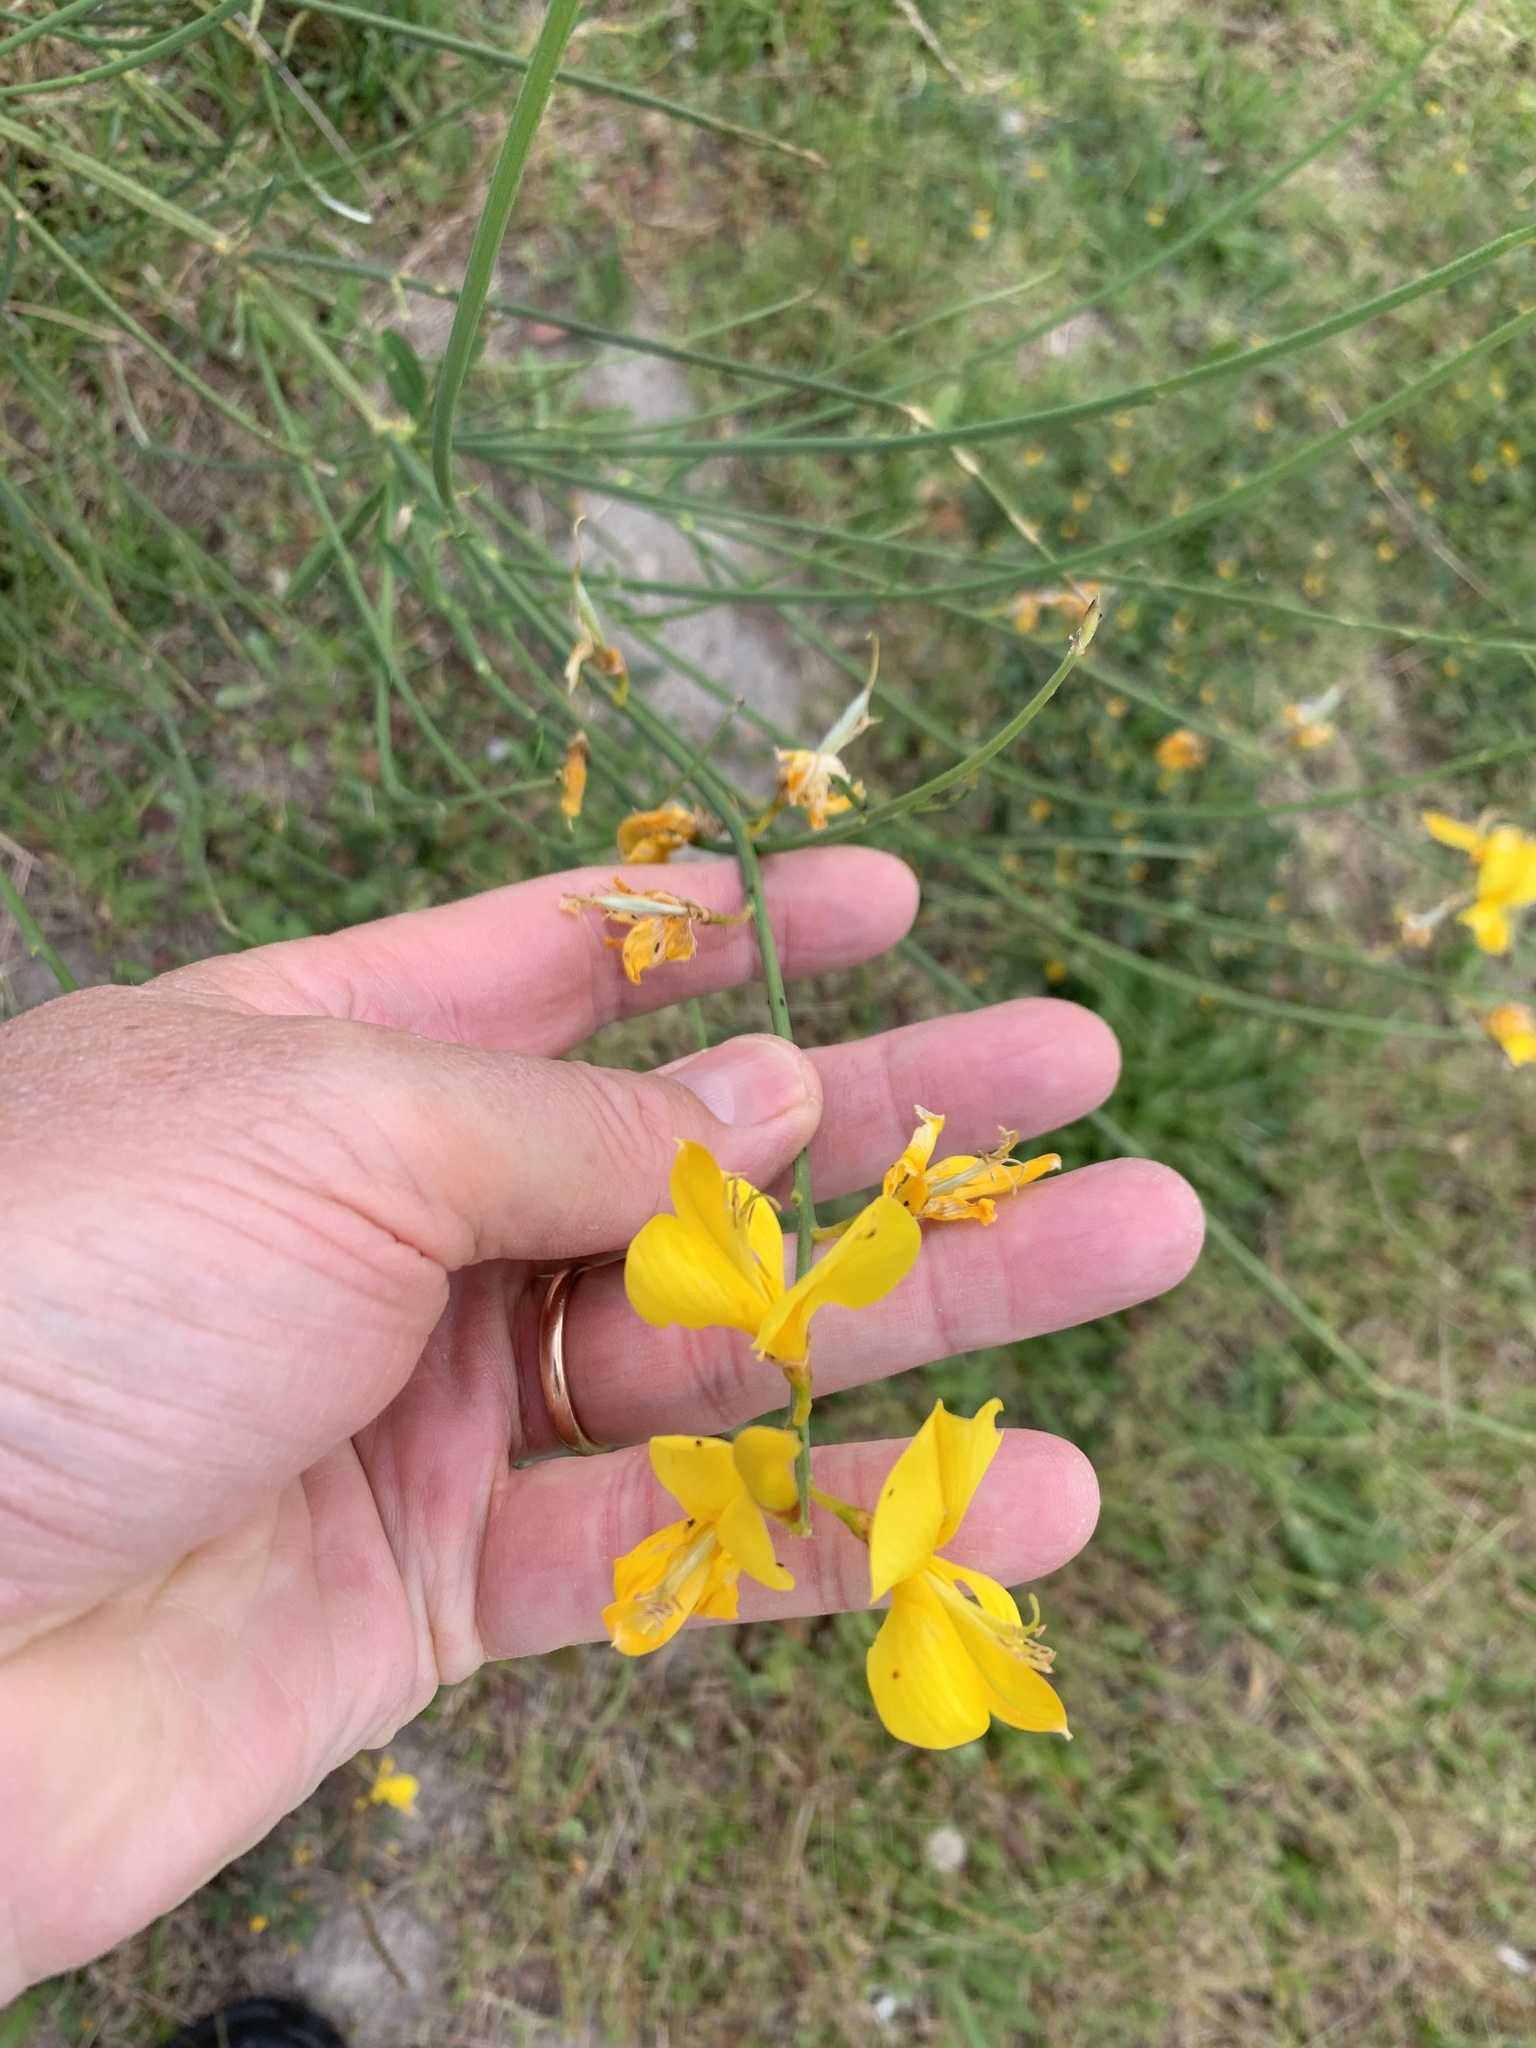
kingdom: Plantae
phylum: Tracheophyta
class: Magnoliopsida
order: Fabales
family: Fabaceae
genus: Spartium
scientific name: Spartium junceum
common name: Spanish broom
